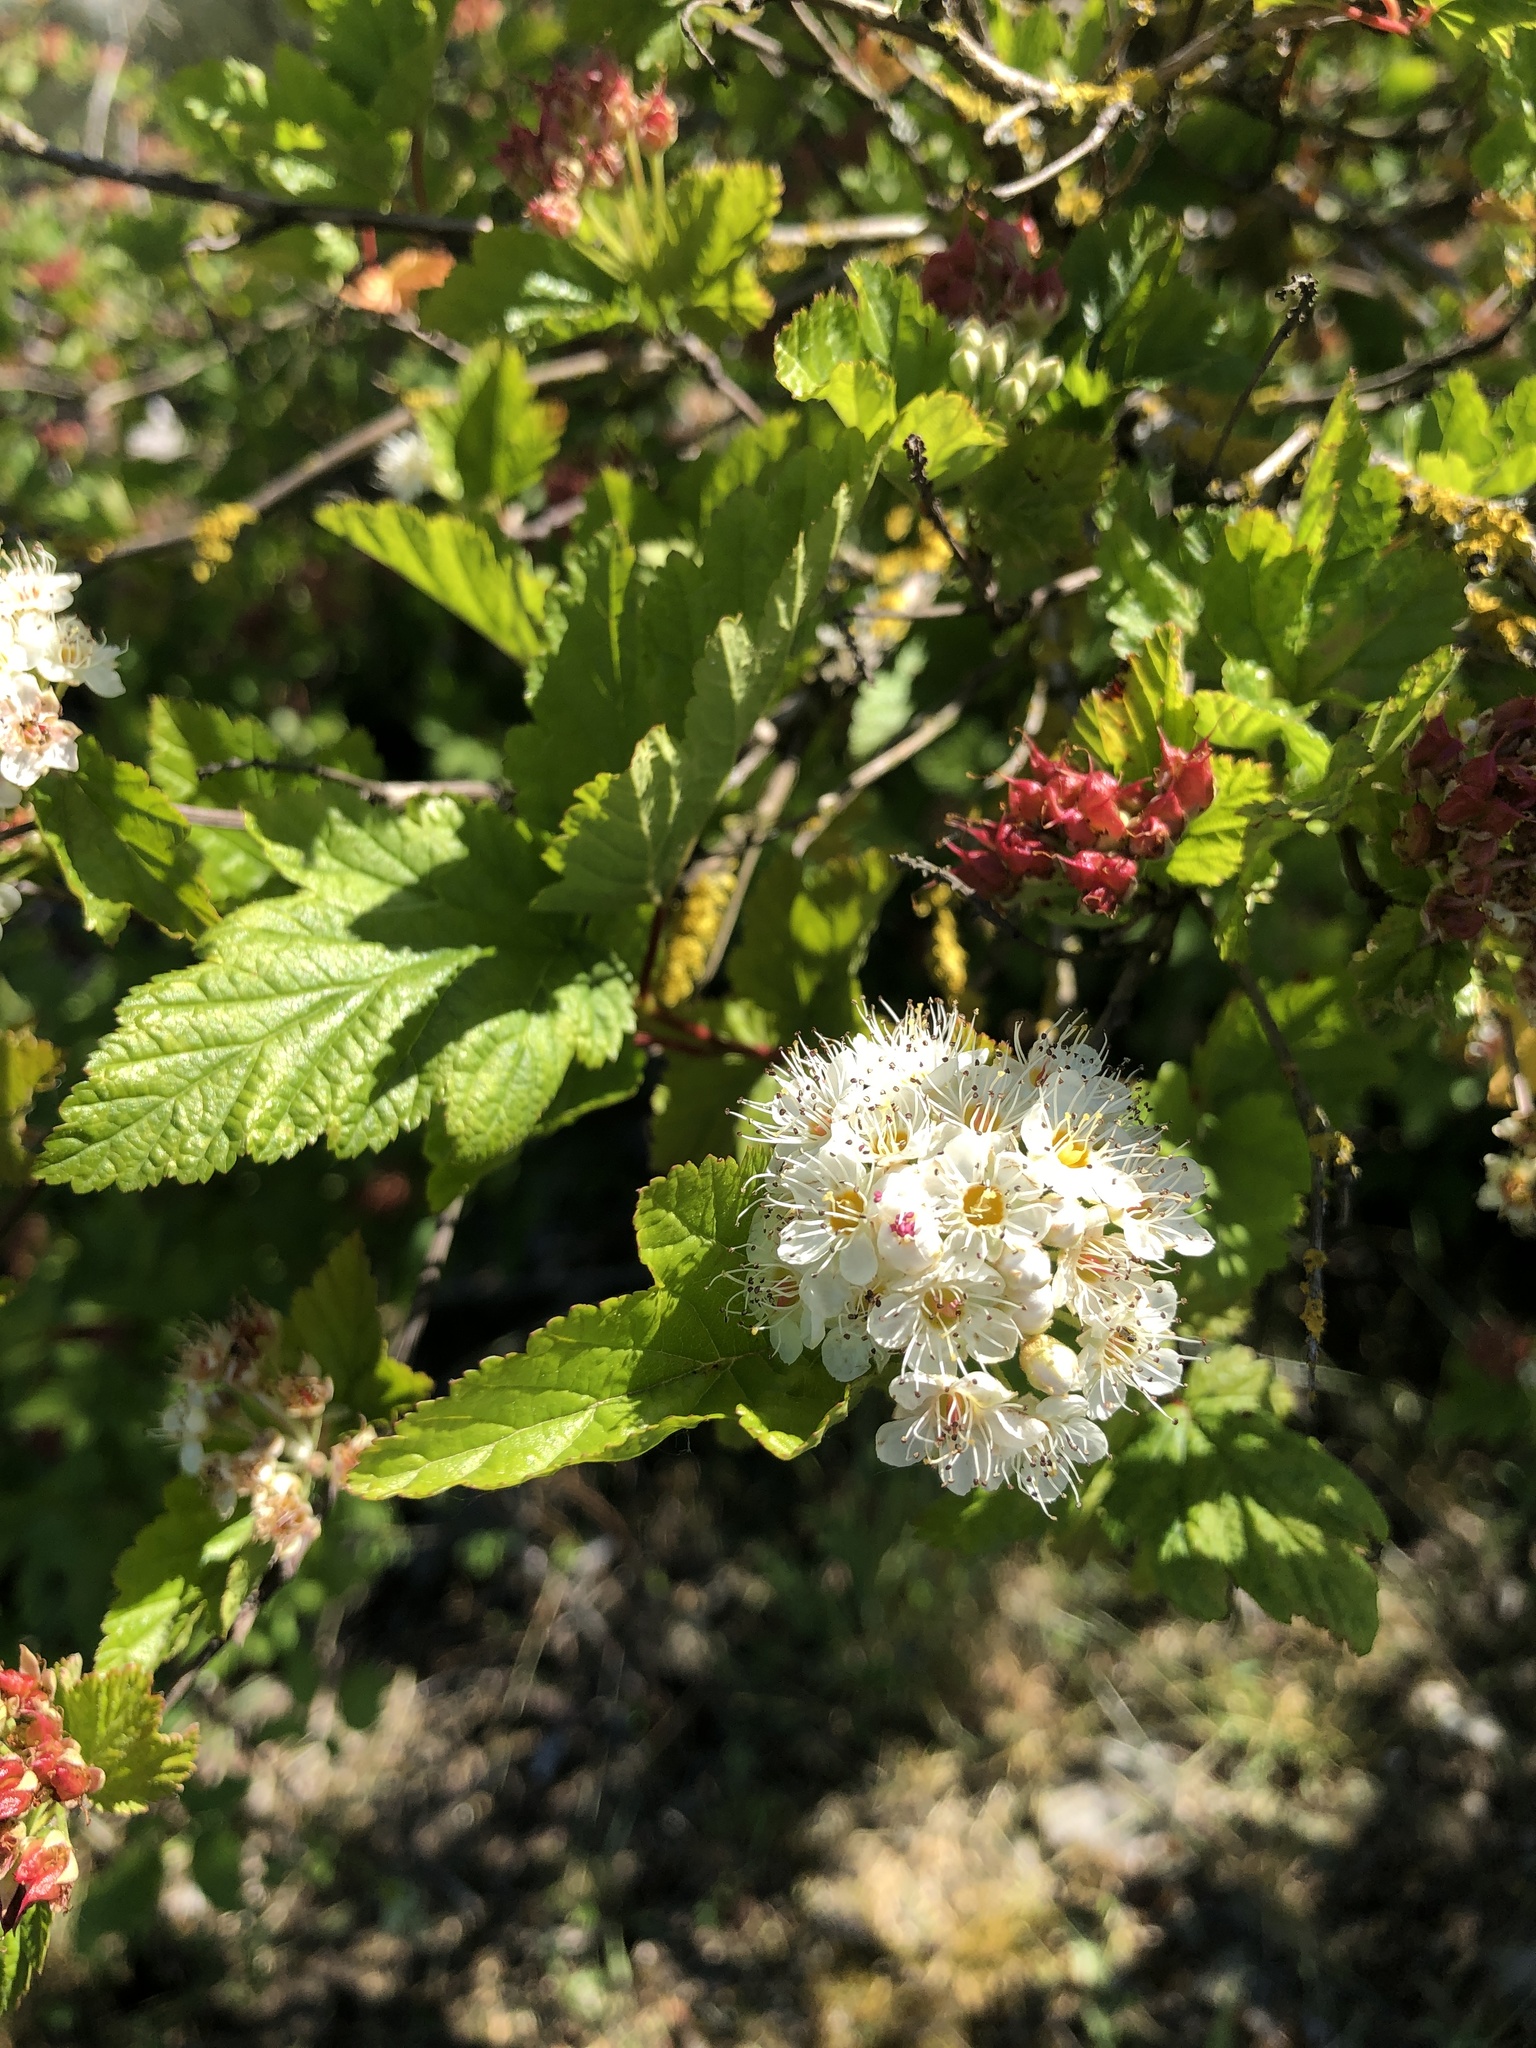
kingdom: Plantae
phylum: Tracheophyta
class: Magnoliopsida
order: Rosales
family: Rosaceae
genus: Physocarpus
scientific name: Physocarpus capitatus
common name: Pacific ninebark
